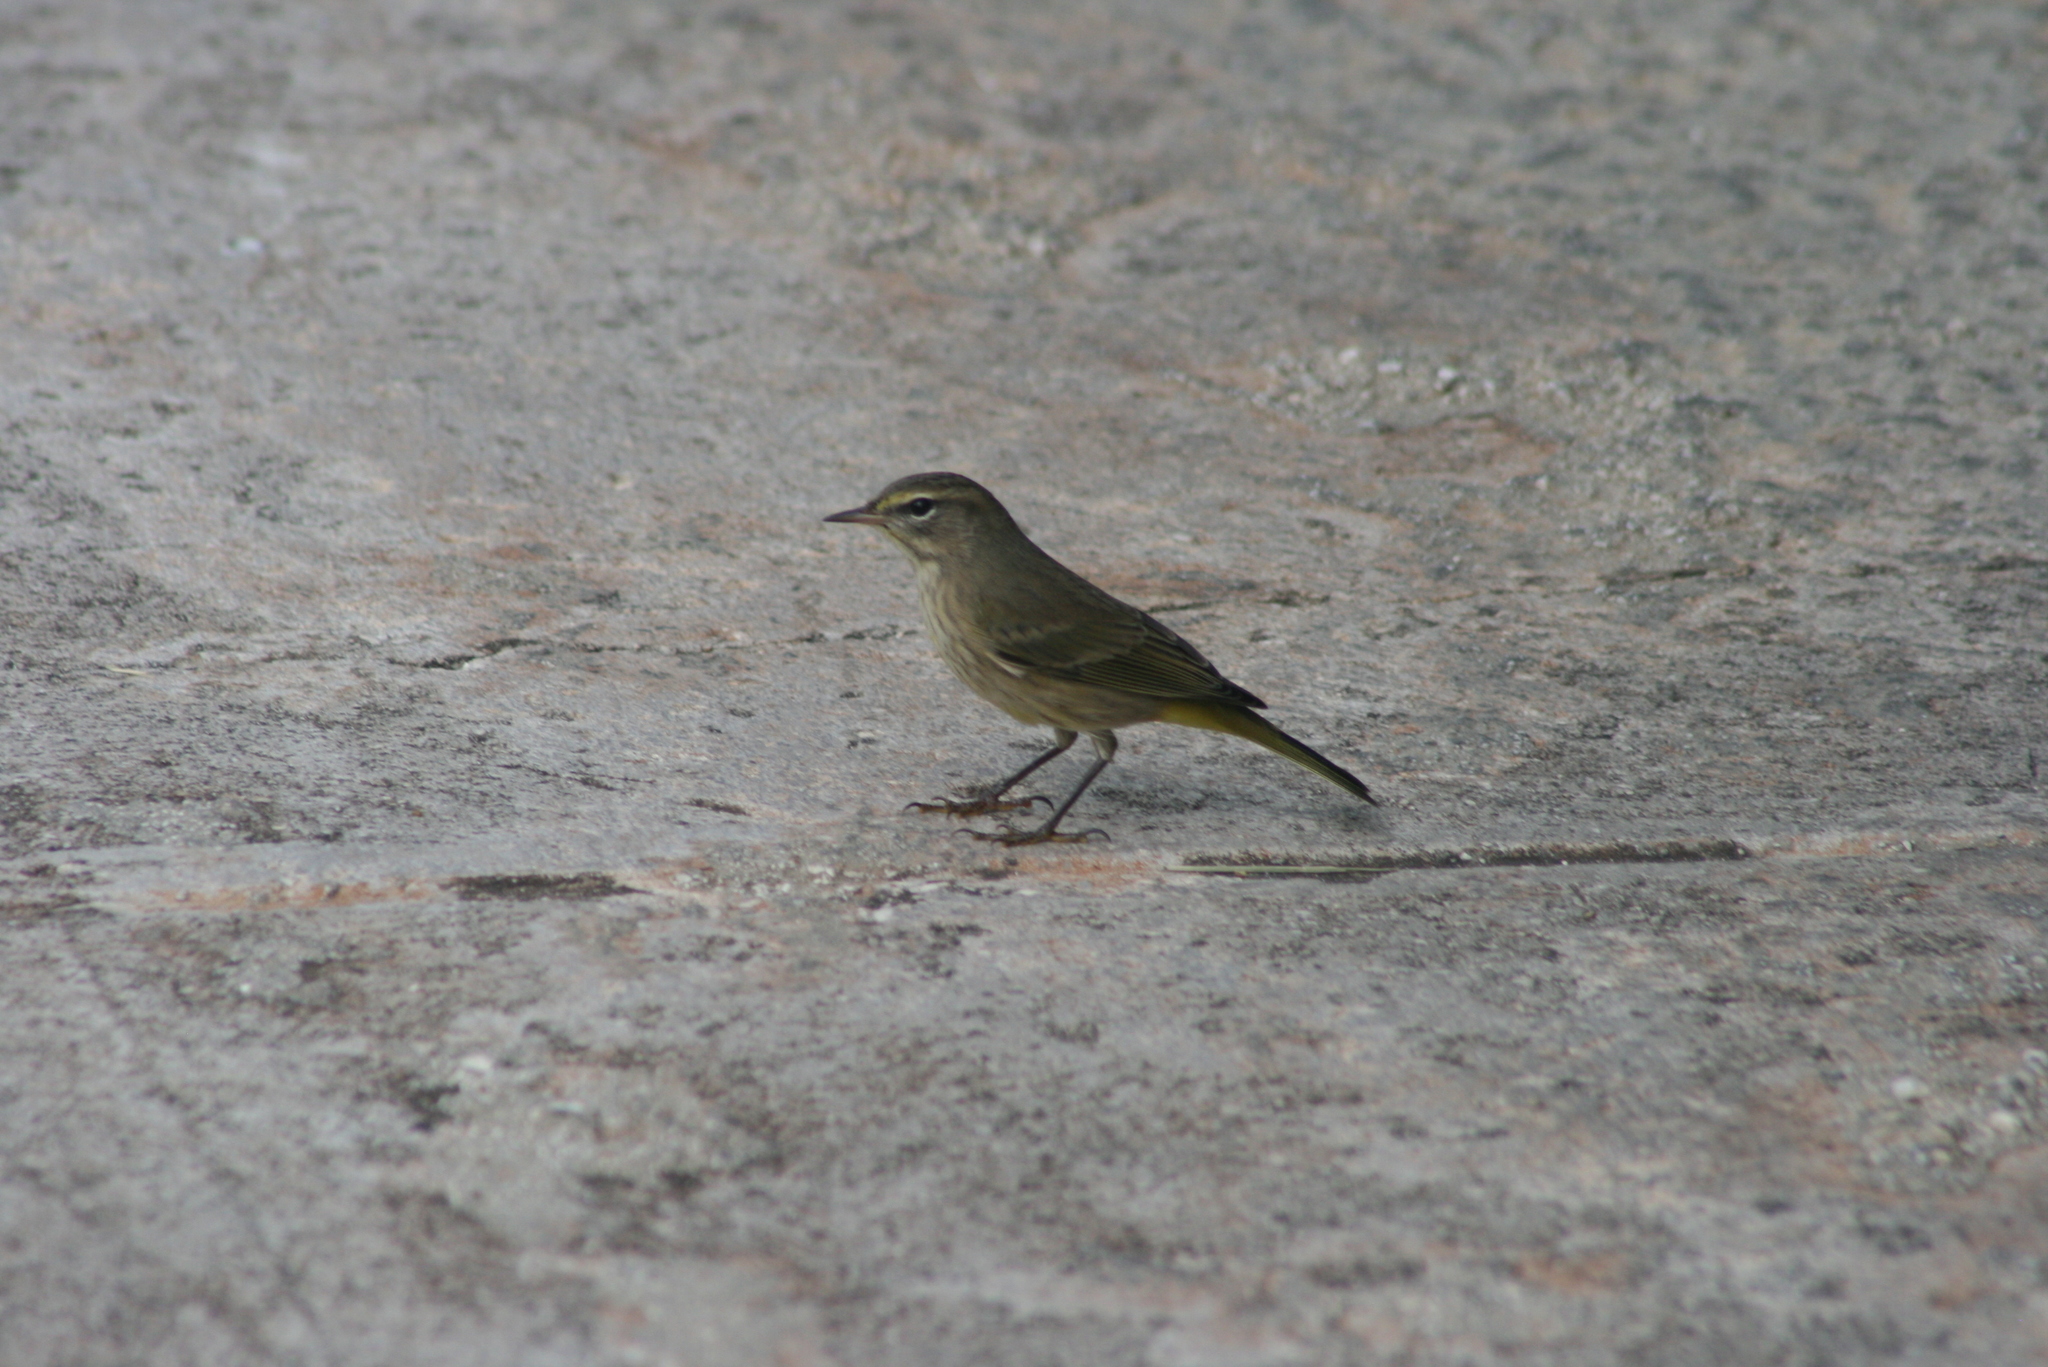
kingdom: Animalia
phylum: Chordata
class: Aves
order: Passeriformes
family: Parulidae
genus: Setophaga
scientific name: Setophaga palmarum
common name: Palm warbler
